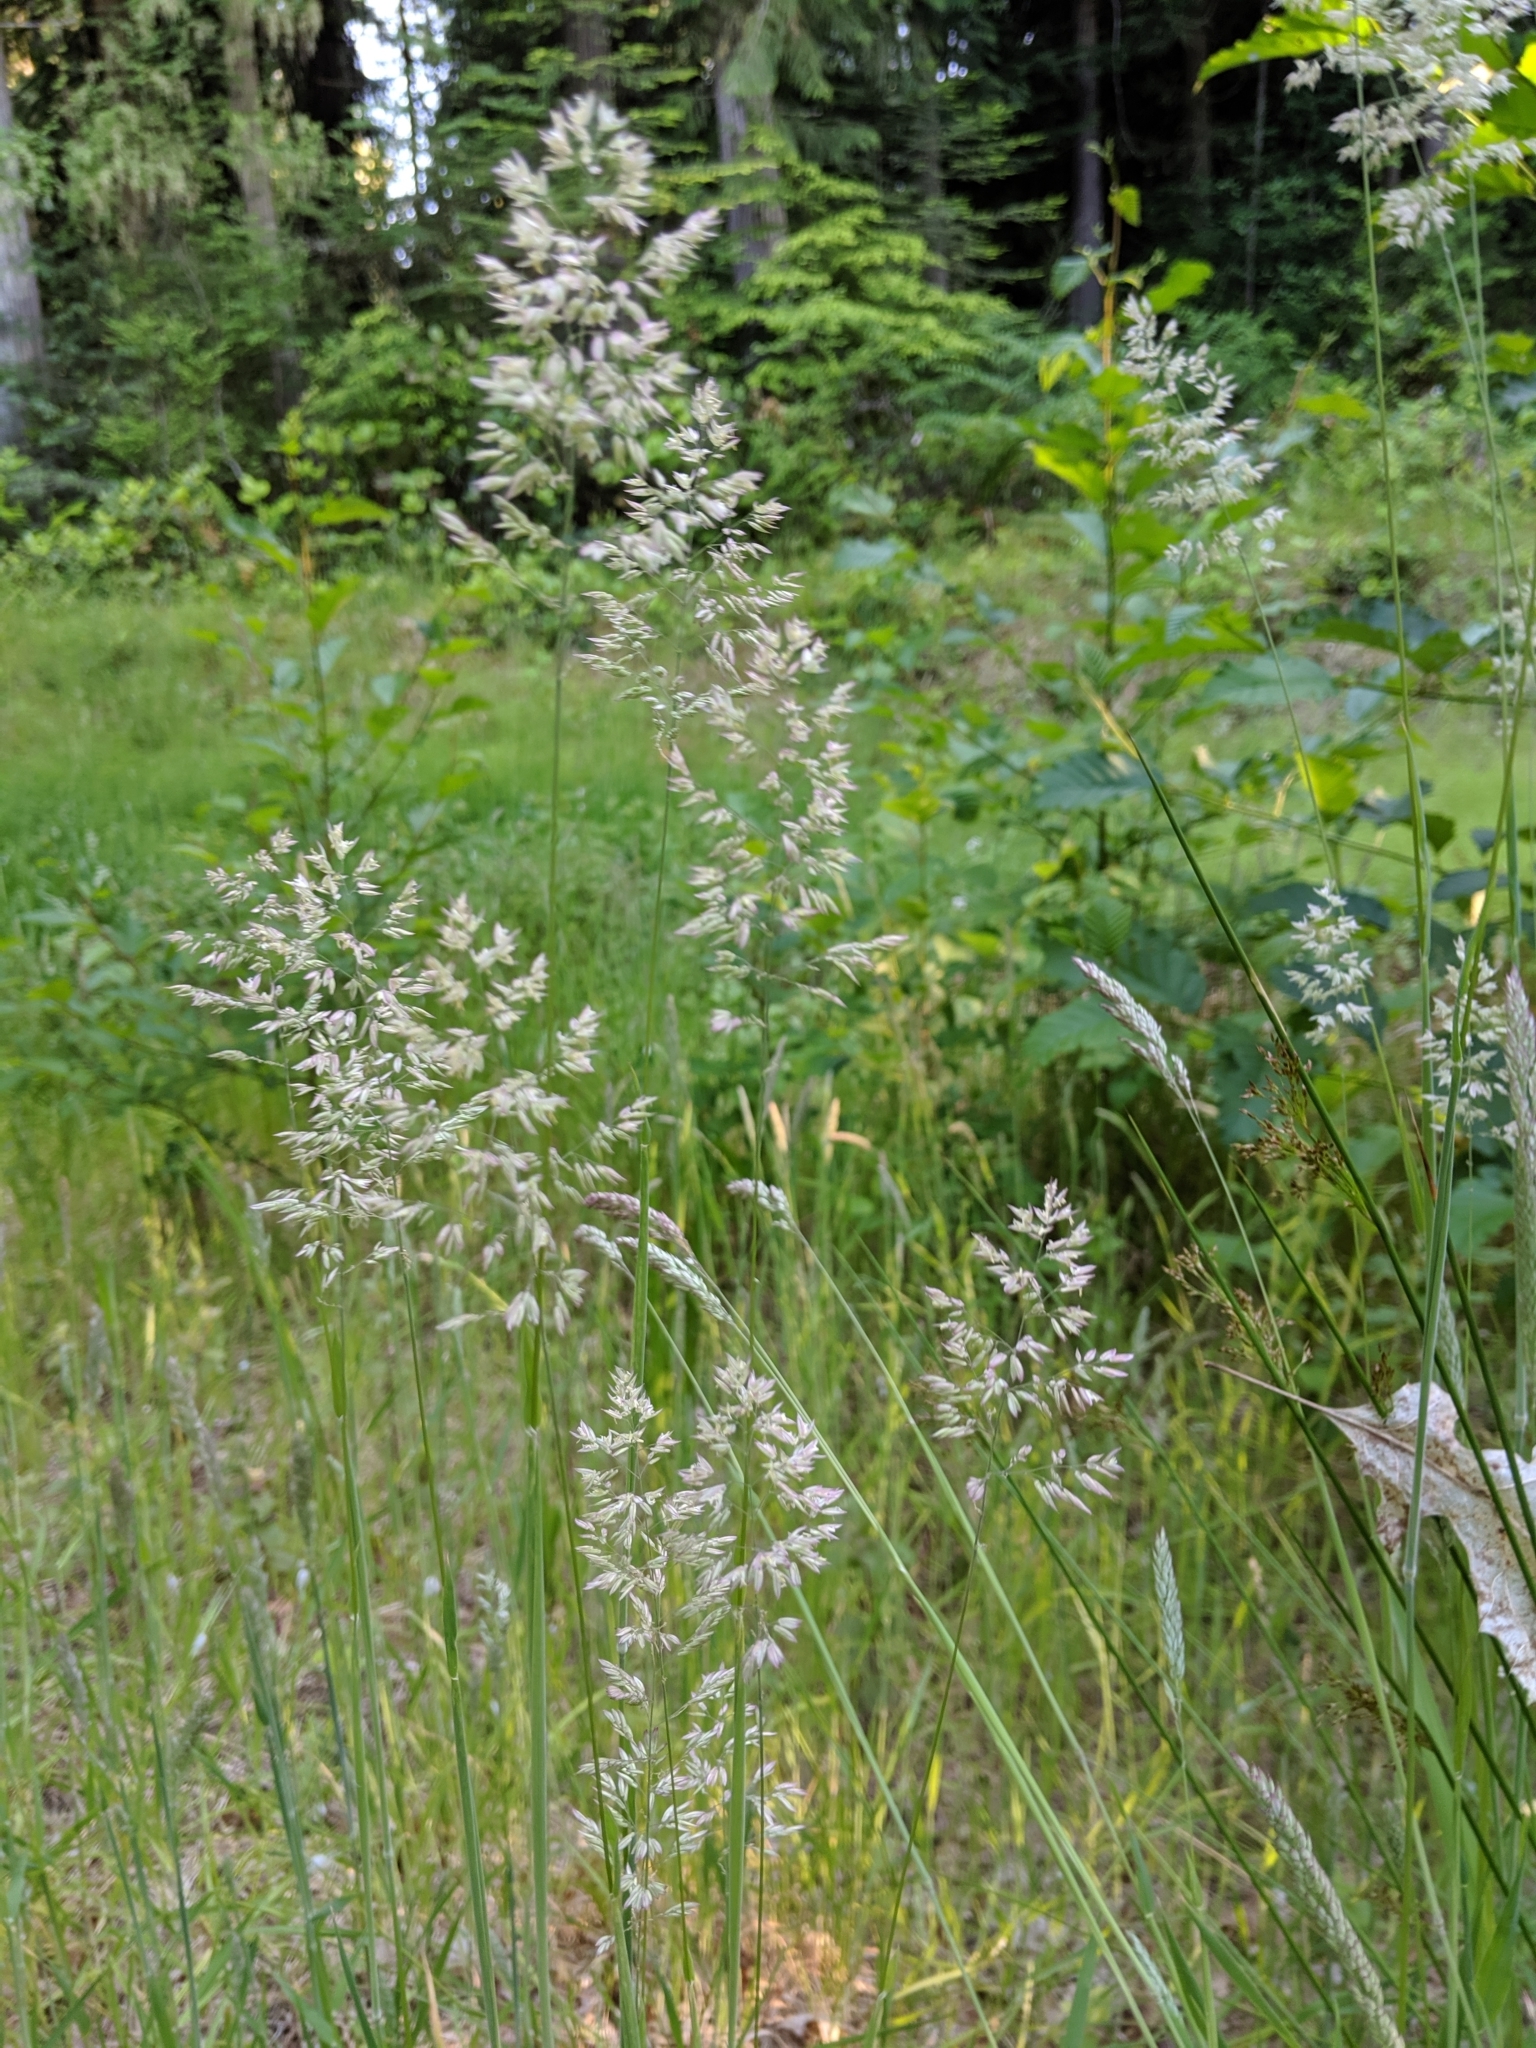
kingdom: Plantae
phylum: Tracheophyta
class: Liliopsida
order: Poales
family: Poaceae
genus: Holcus
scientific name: Holcus lanatus
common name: Yorkshire-fog
